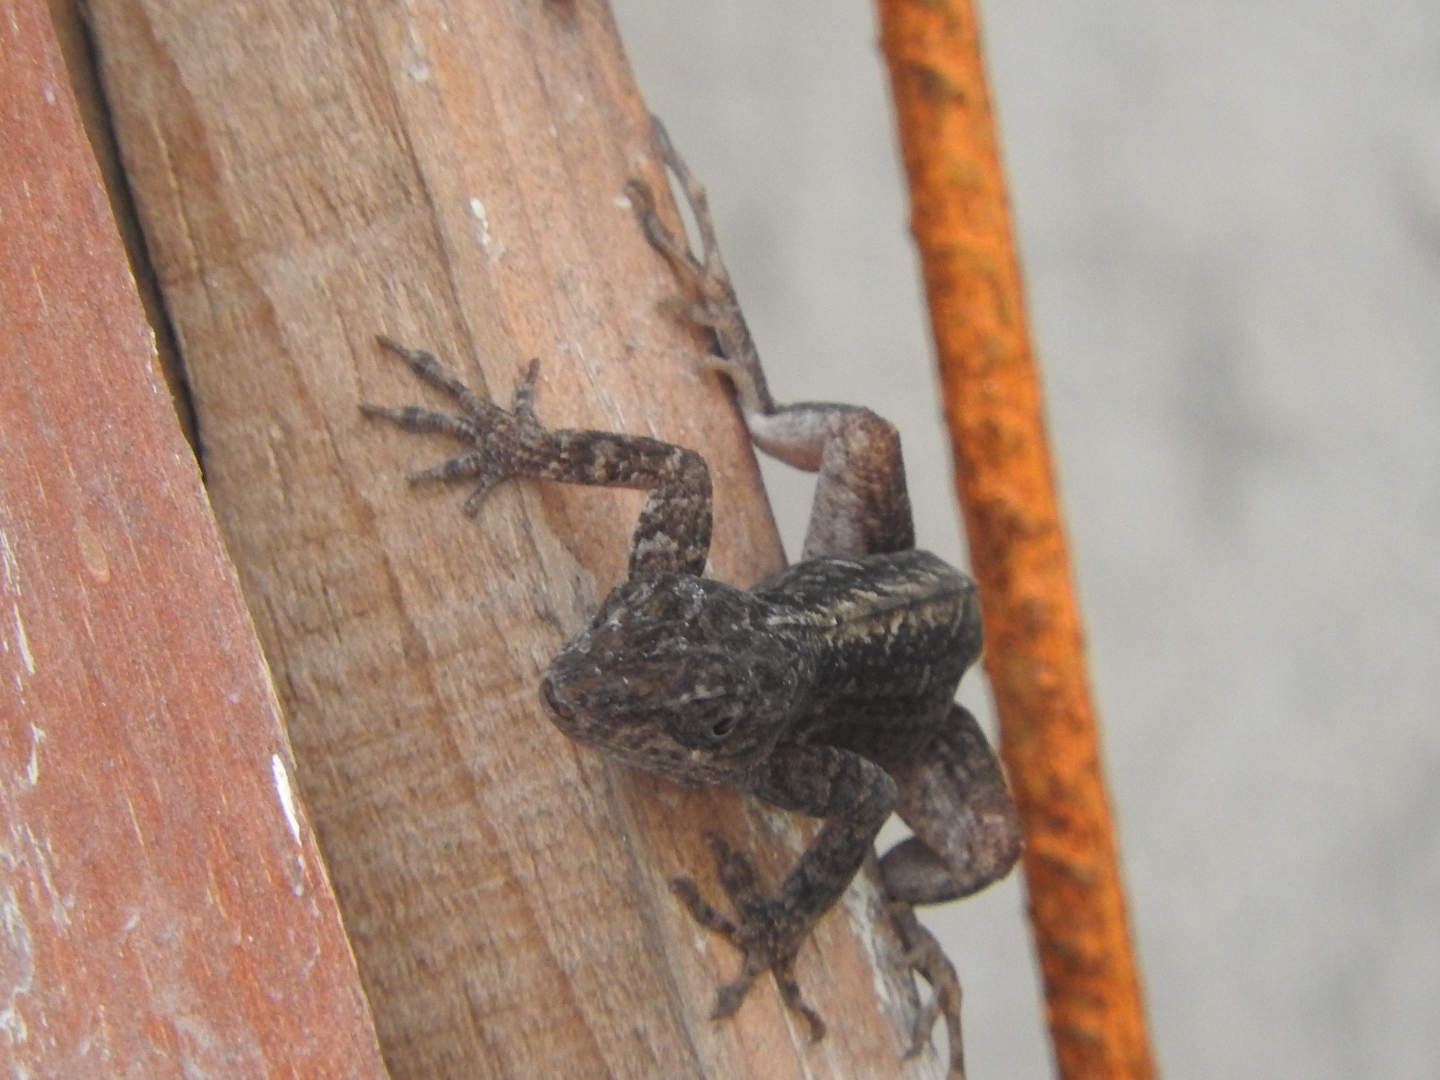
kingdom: Animalia
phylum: Chordata
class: Squamata
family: Dactyloidae
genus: Anolis
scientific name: Anolis sagrei
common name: Brown anole
